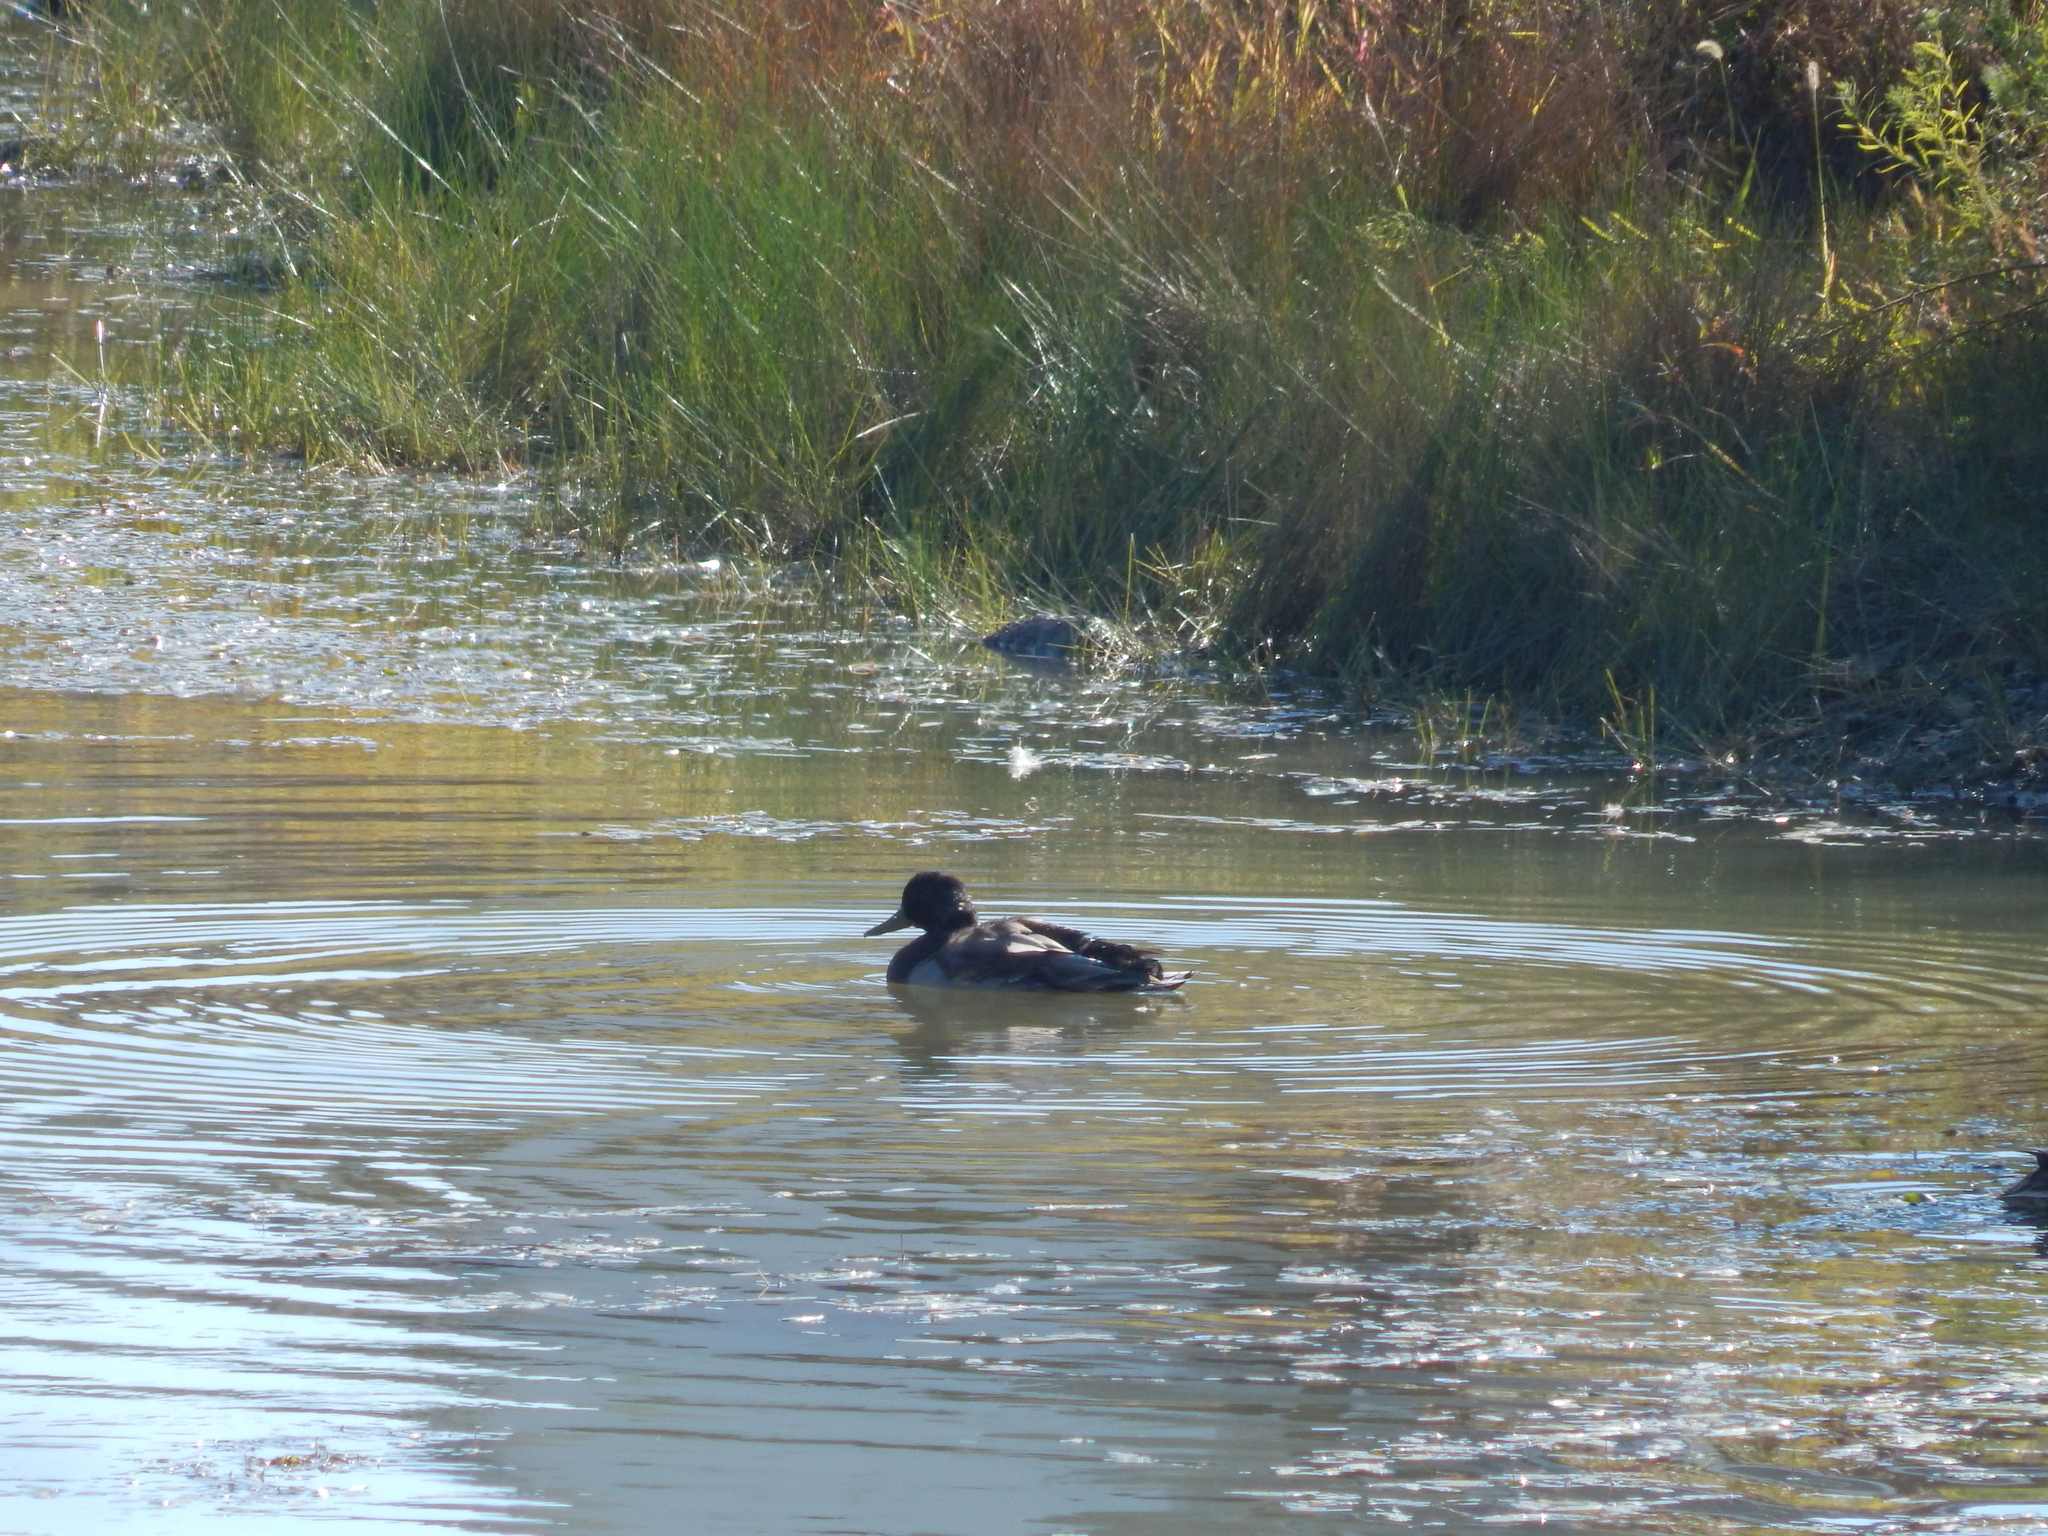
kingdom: Animalia
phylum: Chordata
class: Aves
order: Anseriformes
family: Anatidae
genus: Anas
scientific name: Anas platyrhynchos
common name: Mallard
